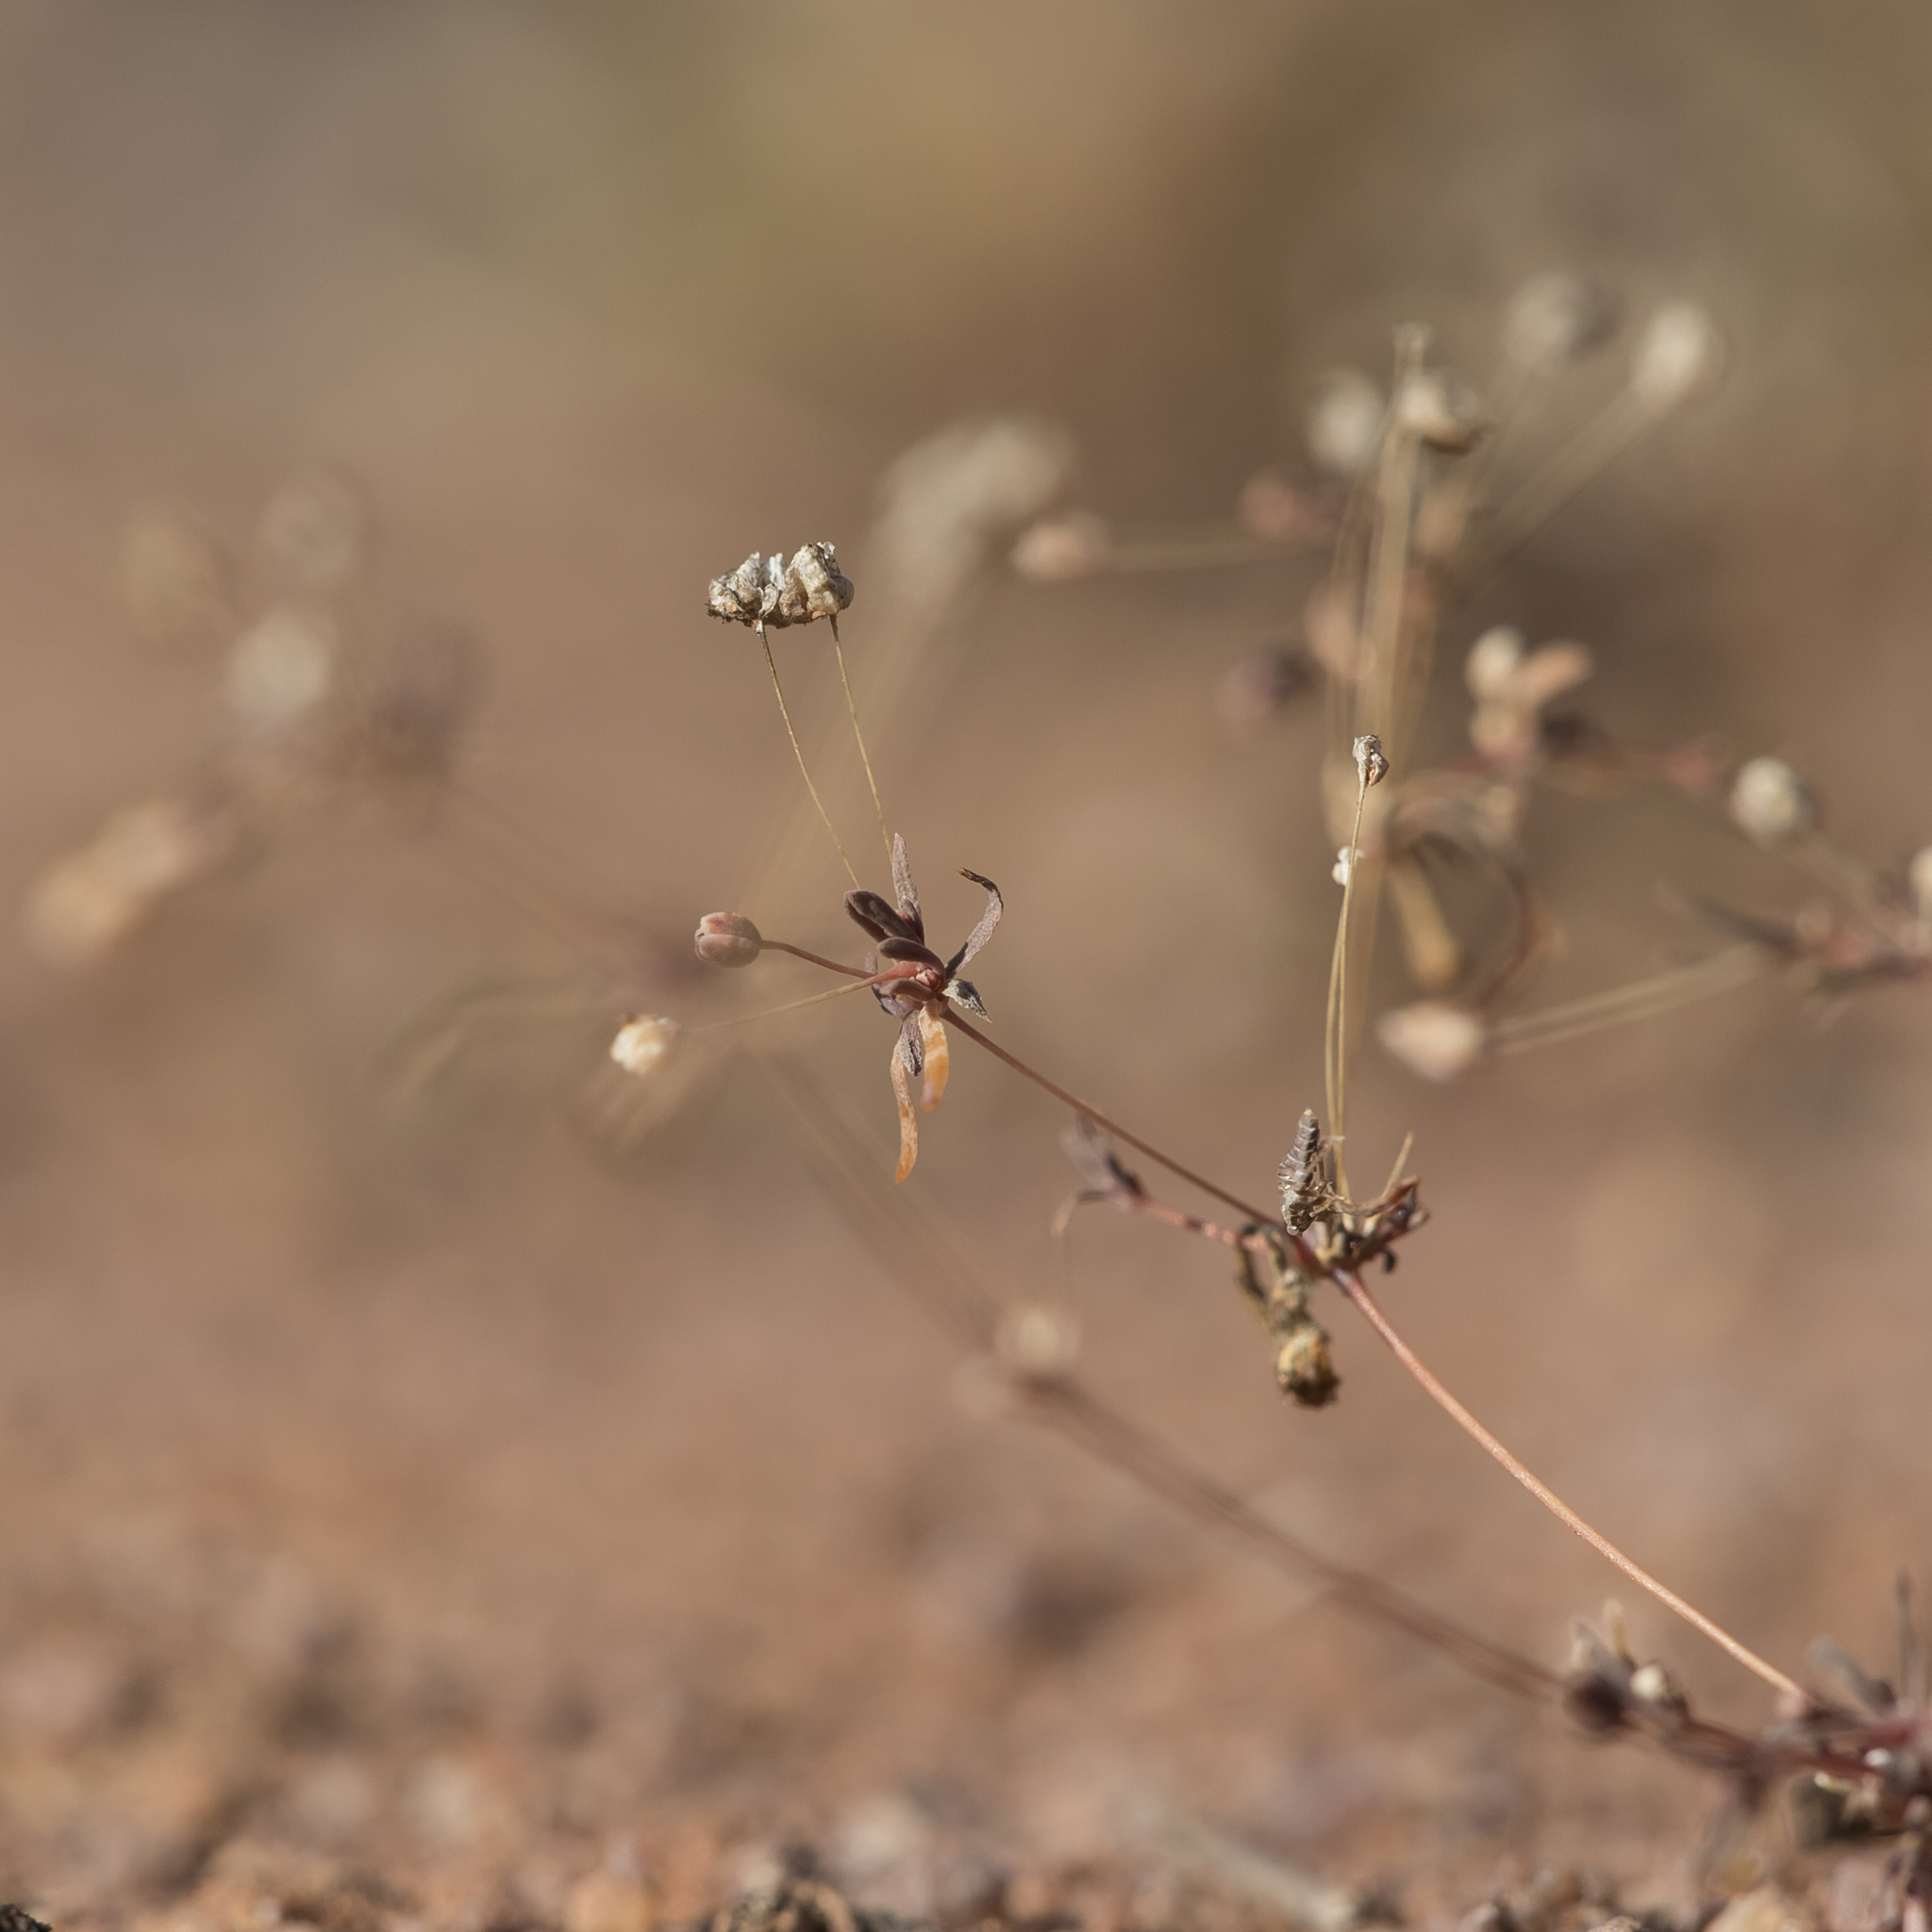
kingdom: Plantae
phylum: Tracheophyta
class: Magnoliopsida
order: Asterales
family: Asteraceae
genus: Siemssenia
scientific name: Siemssenia capillaris
